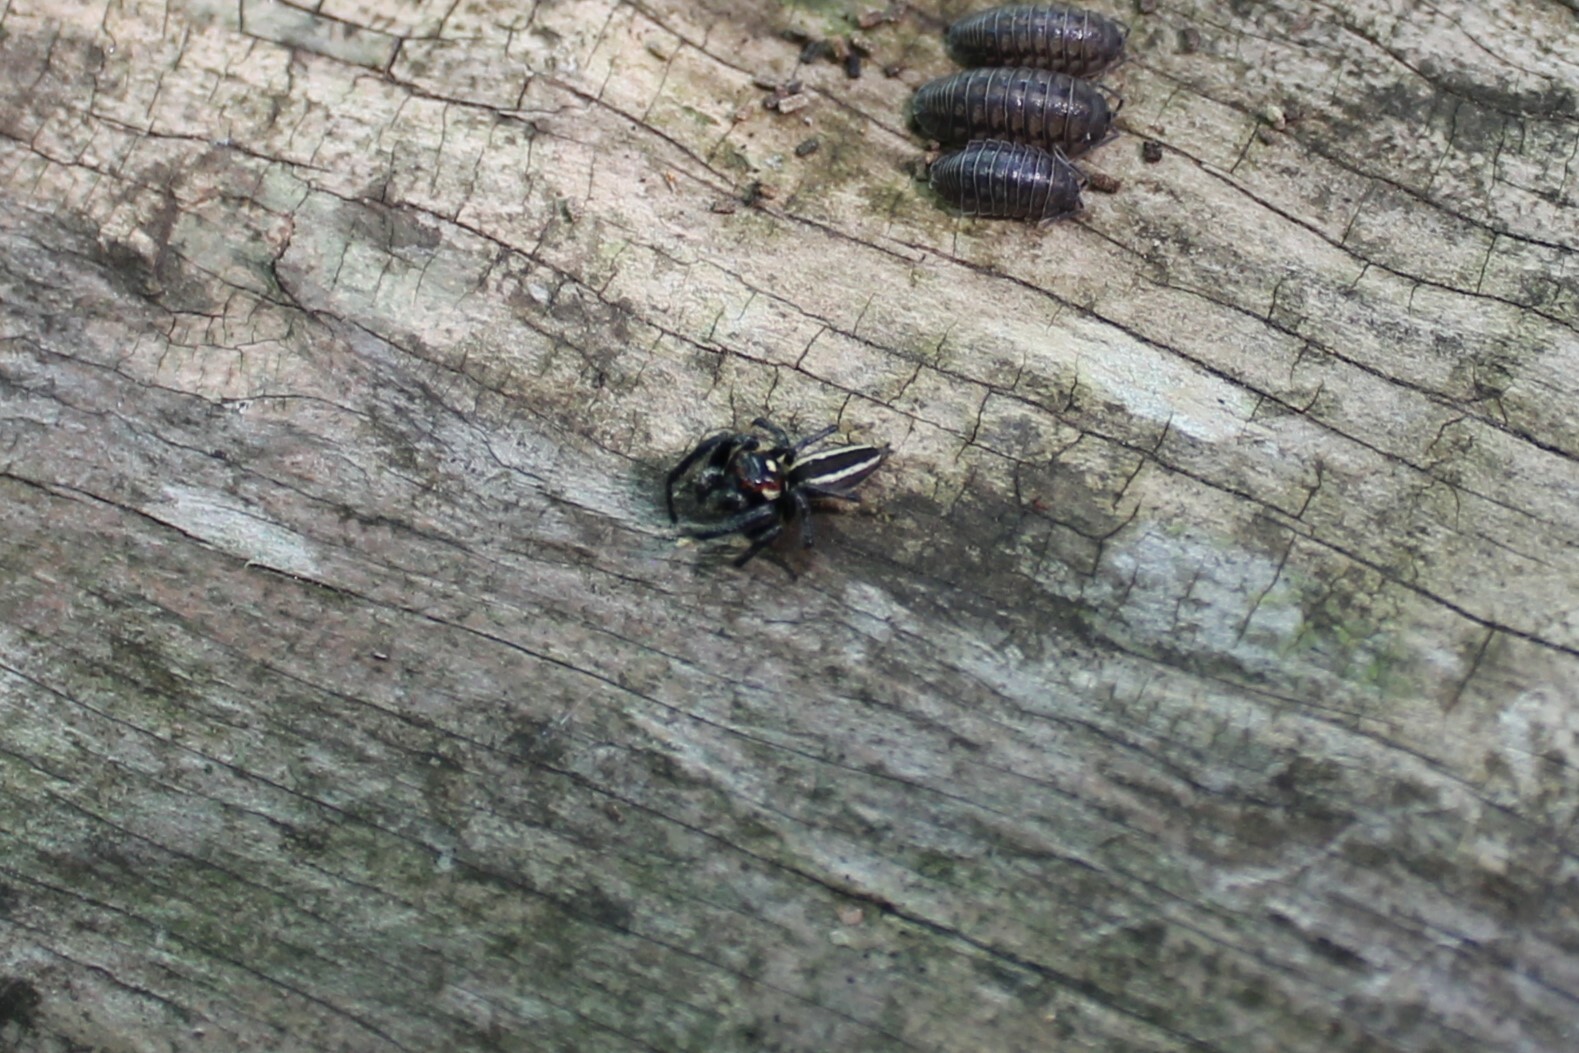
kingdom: Animalia
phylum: Arthropoda
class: Arachnida
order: Araneae
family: Salticidae
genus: Colonus
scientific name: Colonus sylvanus
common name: Jumping spiders
